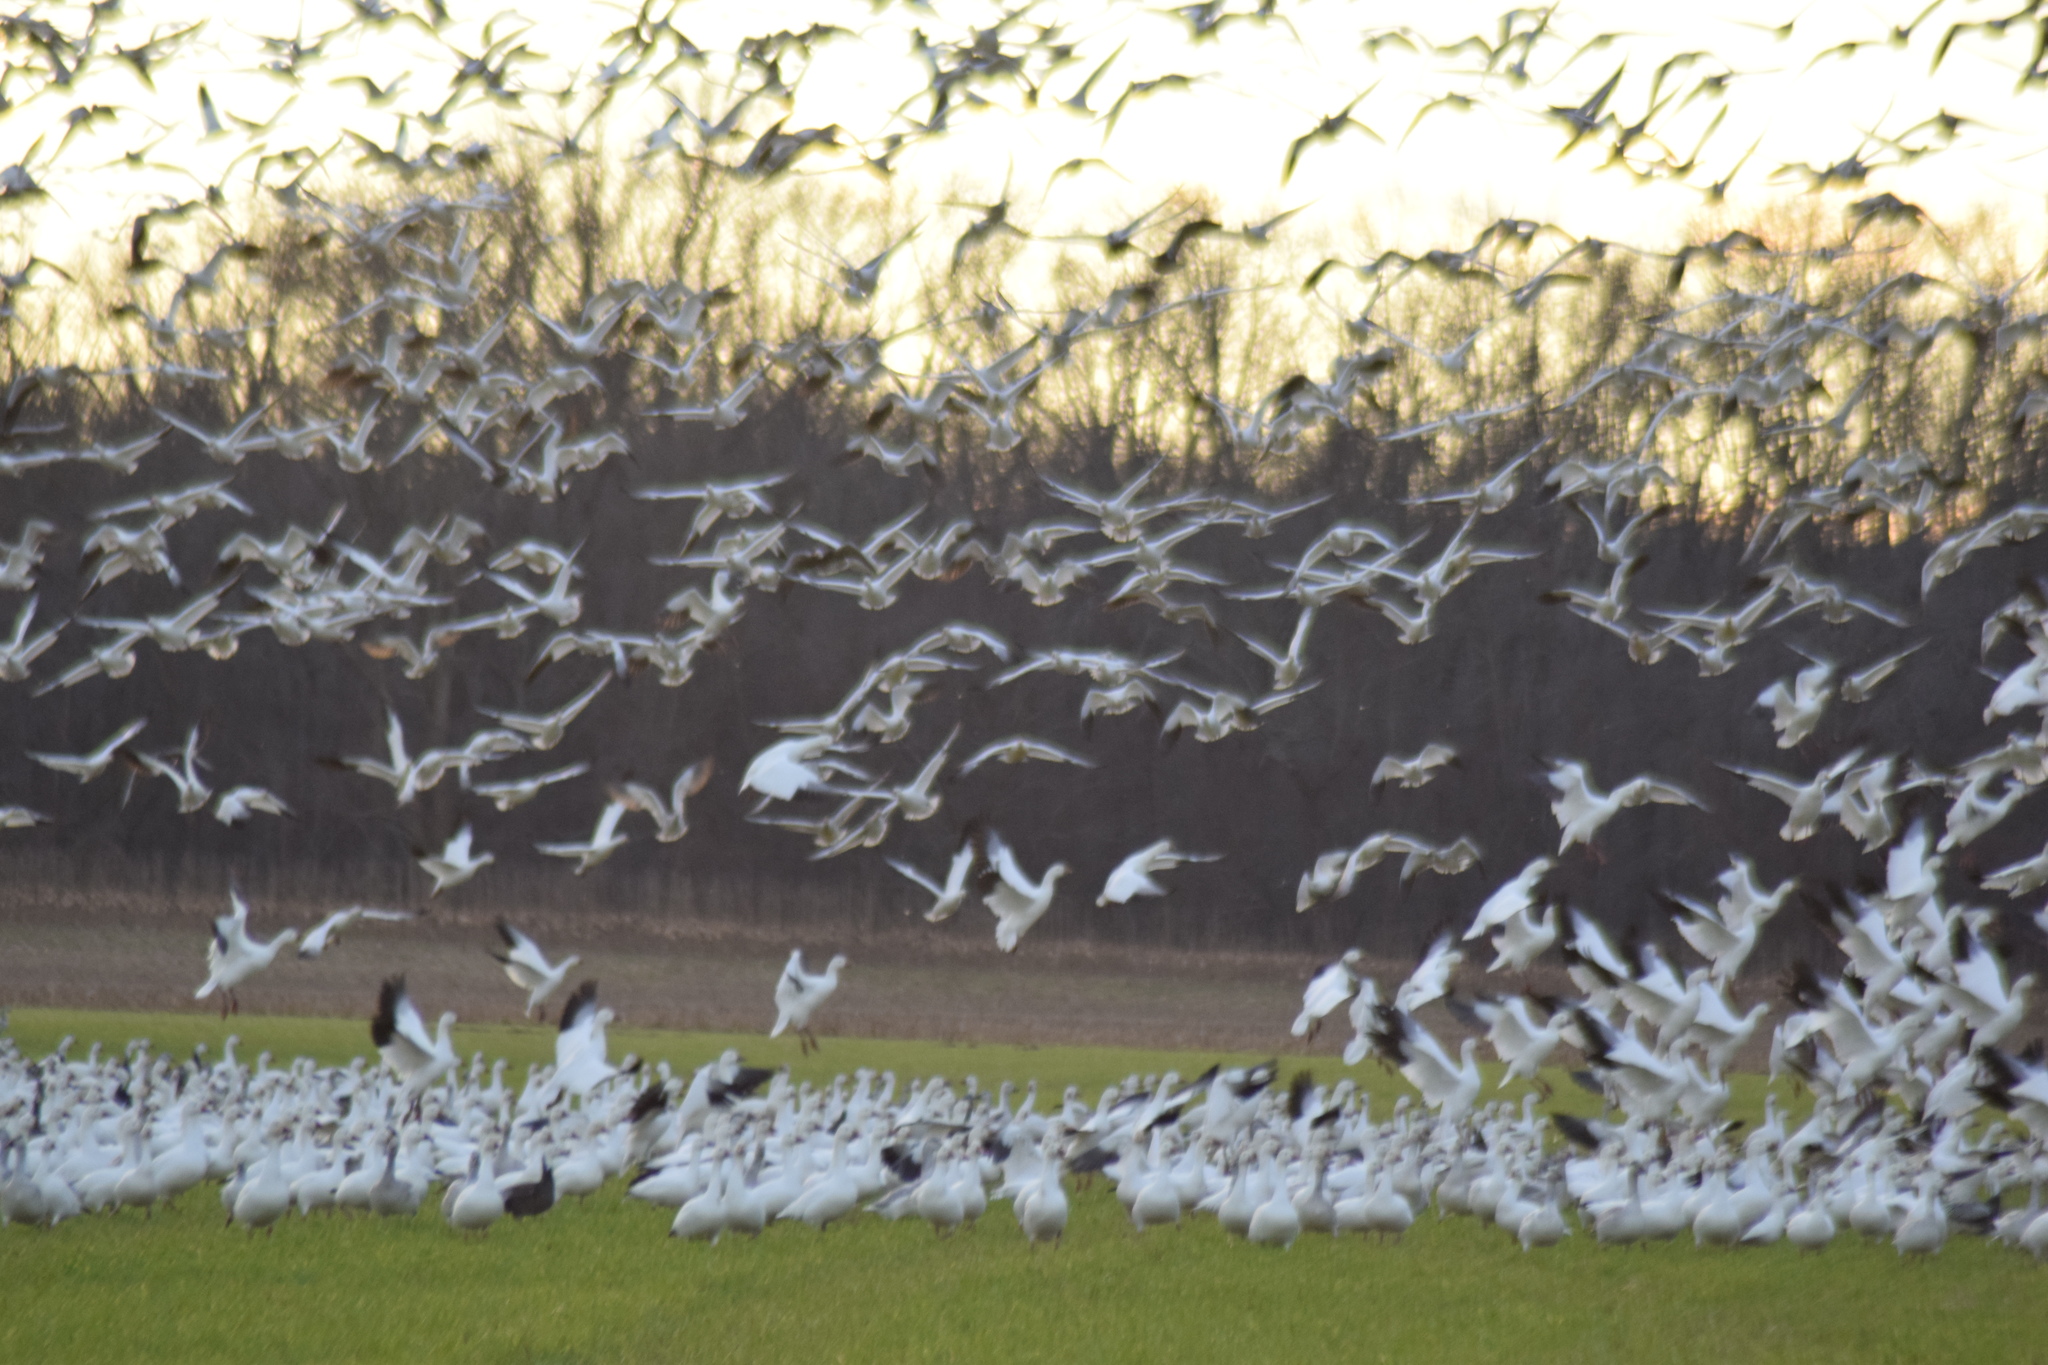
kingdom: Animalia
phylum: Chordata
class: Aves
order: Anseriformes
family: Anatidae
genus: Anser
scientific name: Anser caerulescens
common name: Snow goose
